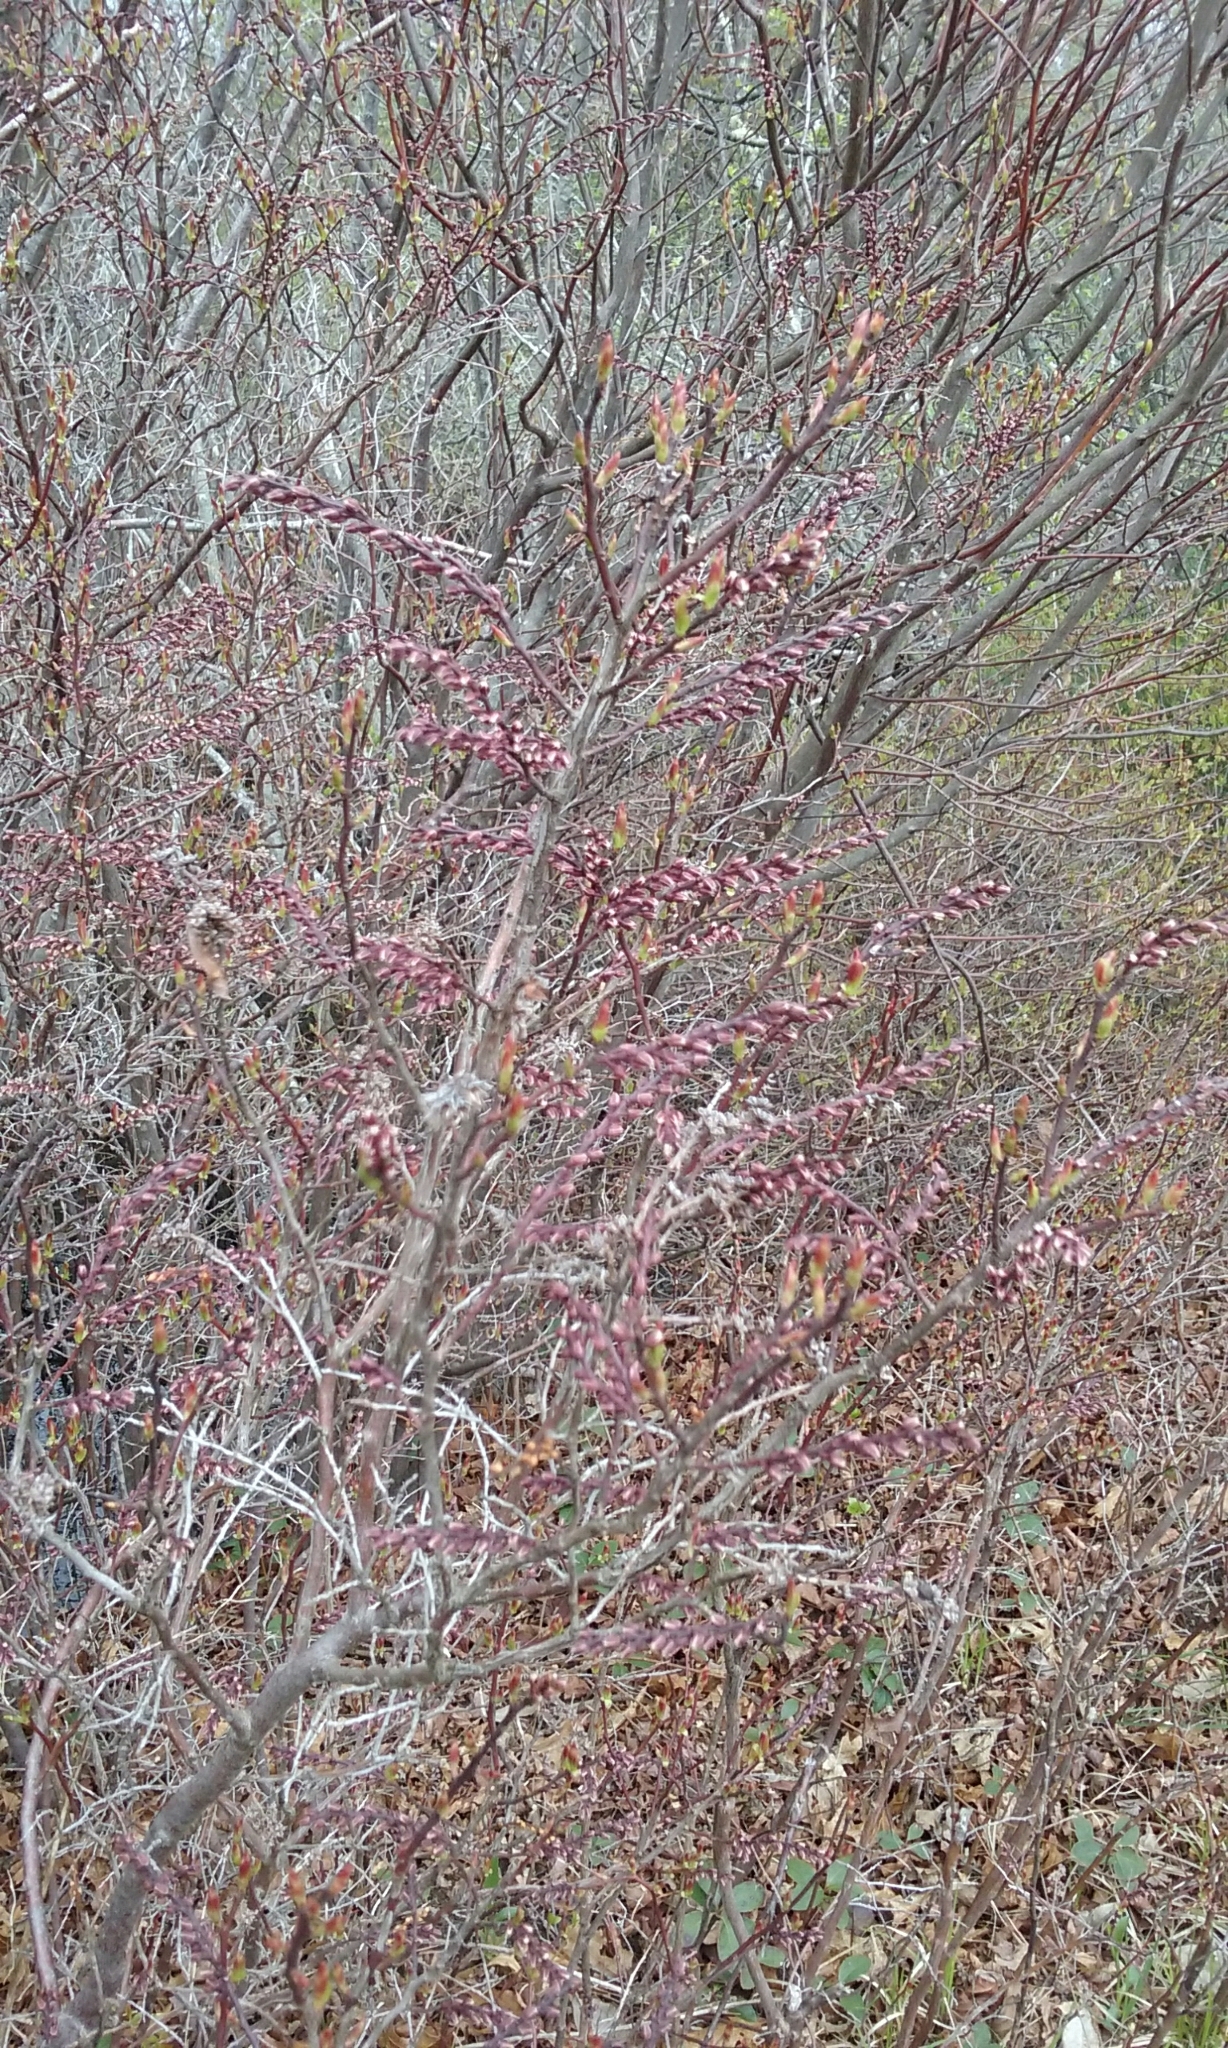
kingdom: Plantae
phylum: Tracheophyta
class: Magnoliopsida
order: Ericales
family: Ericaceae
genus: Eubotrys
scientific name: Eubotrys racemosa
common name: Fetterbush
